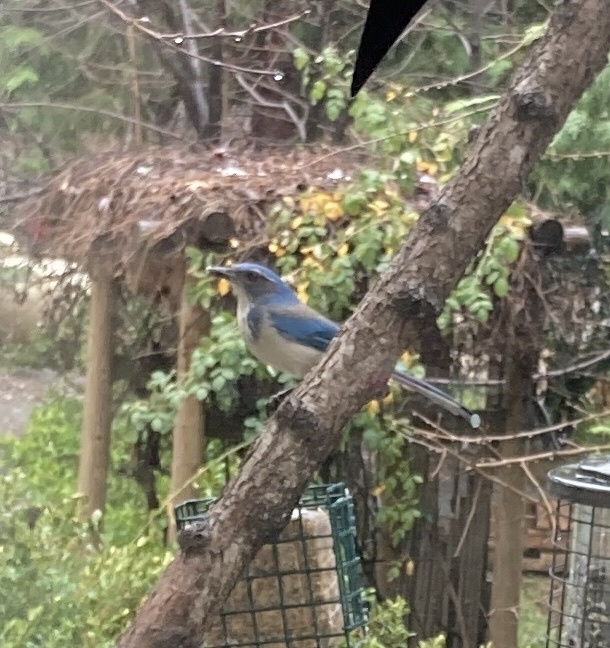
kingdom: Animalia
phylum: Chordata
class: Aves
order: Passeriformes
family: Corvidae
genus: Aphelocoma
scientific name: Aphelocoma californica
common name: California scrub-jay
